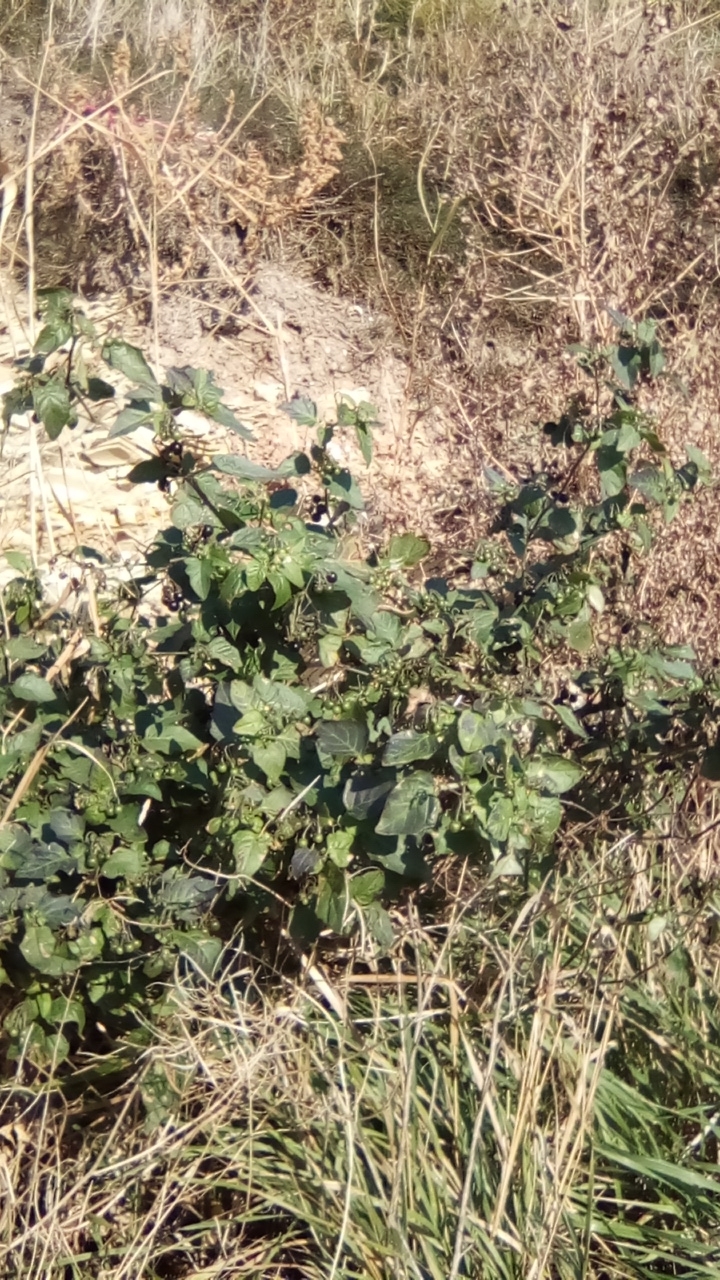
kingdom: Plantae
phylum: Tracheophyta
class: Magnoliopsida
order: Solanales
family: Solanaceae
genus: Solanum
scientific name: Solanum nigrum
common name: Black nightshade
